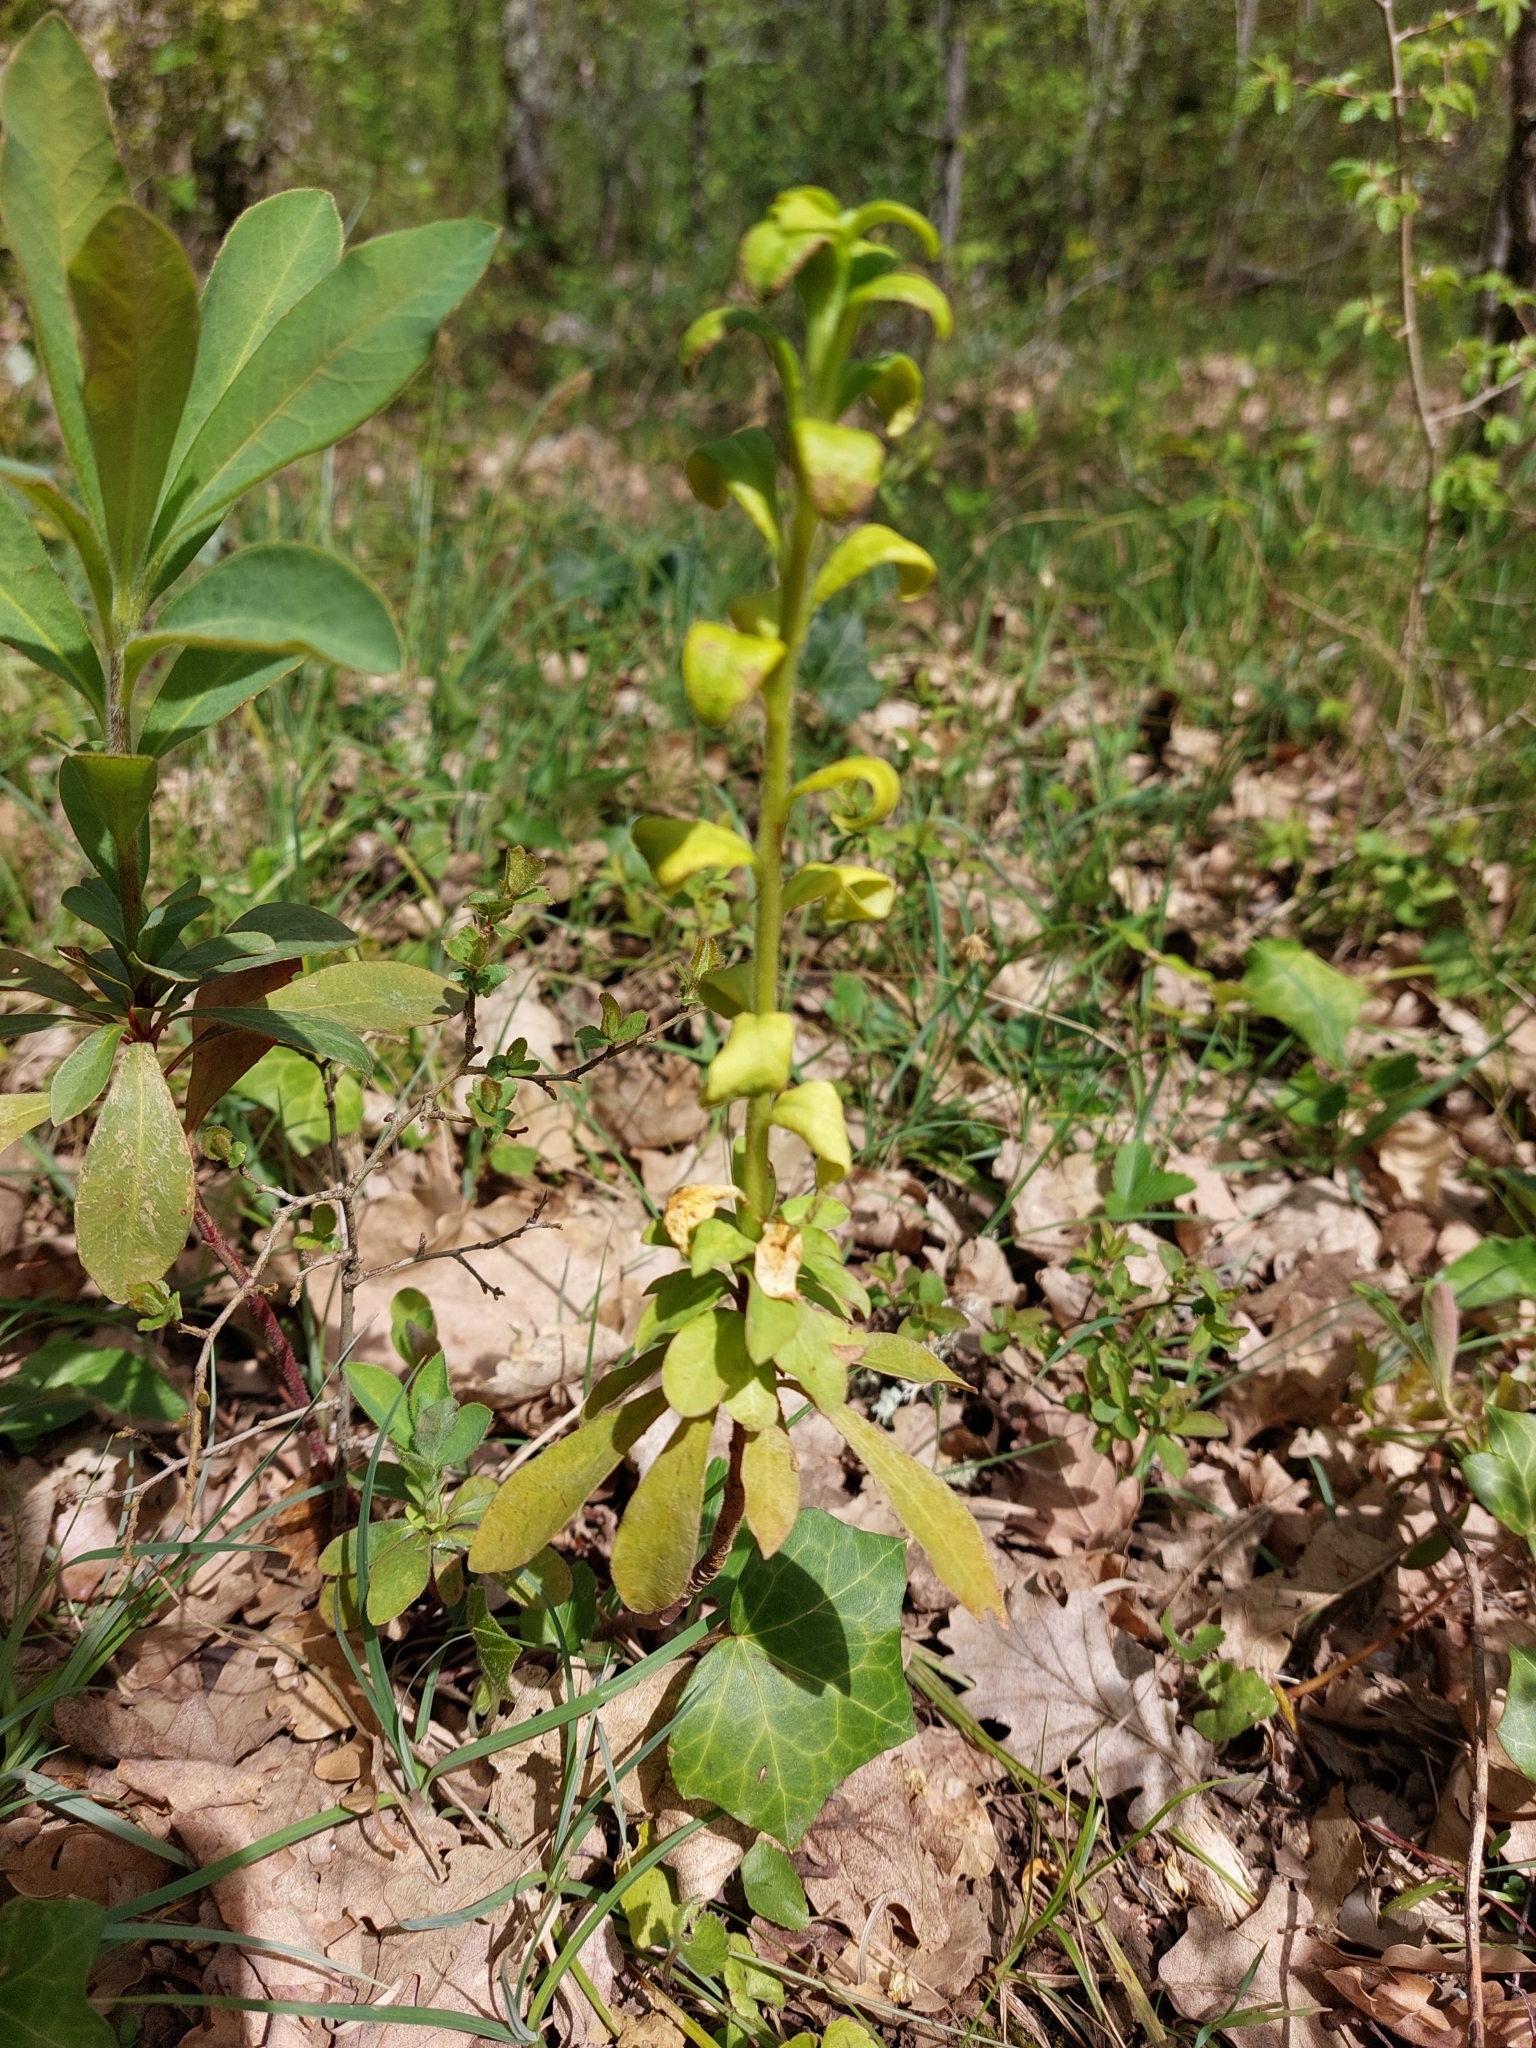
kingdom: Fungi
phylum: Basidiomycota
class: Pucciniomycetes
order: Pucciniales
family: Pucciniaceae
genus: Endophyllum
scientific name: Endophyllum euphorbiae-sylvaticae
